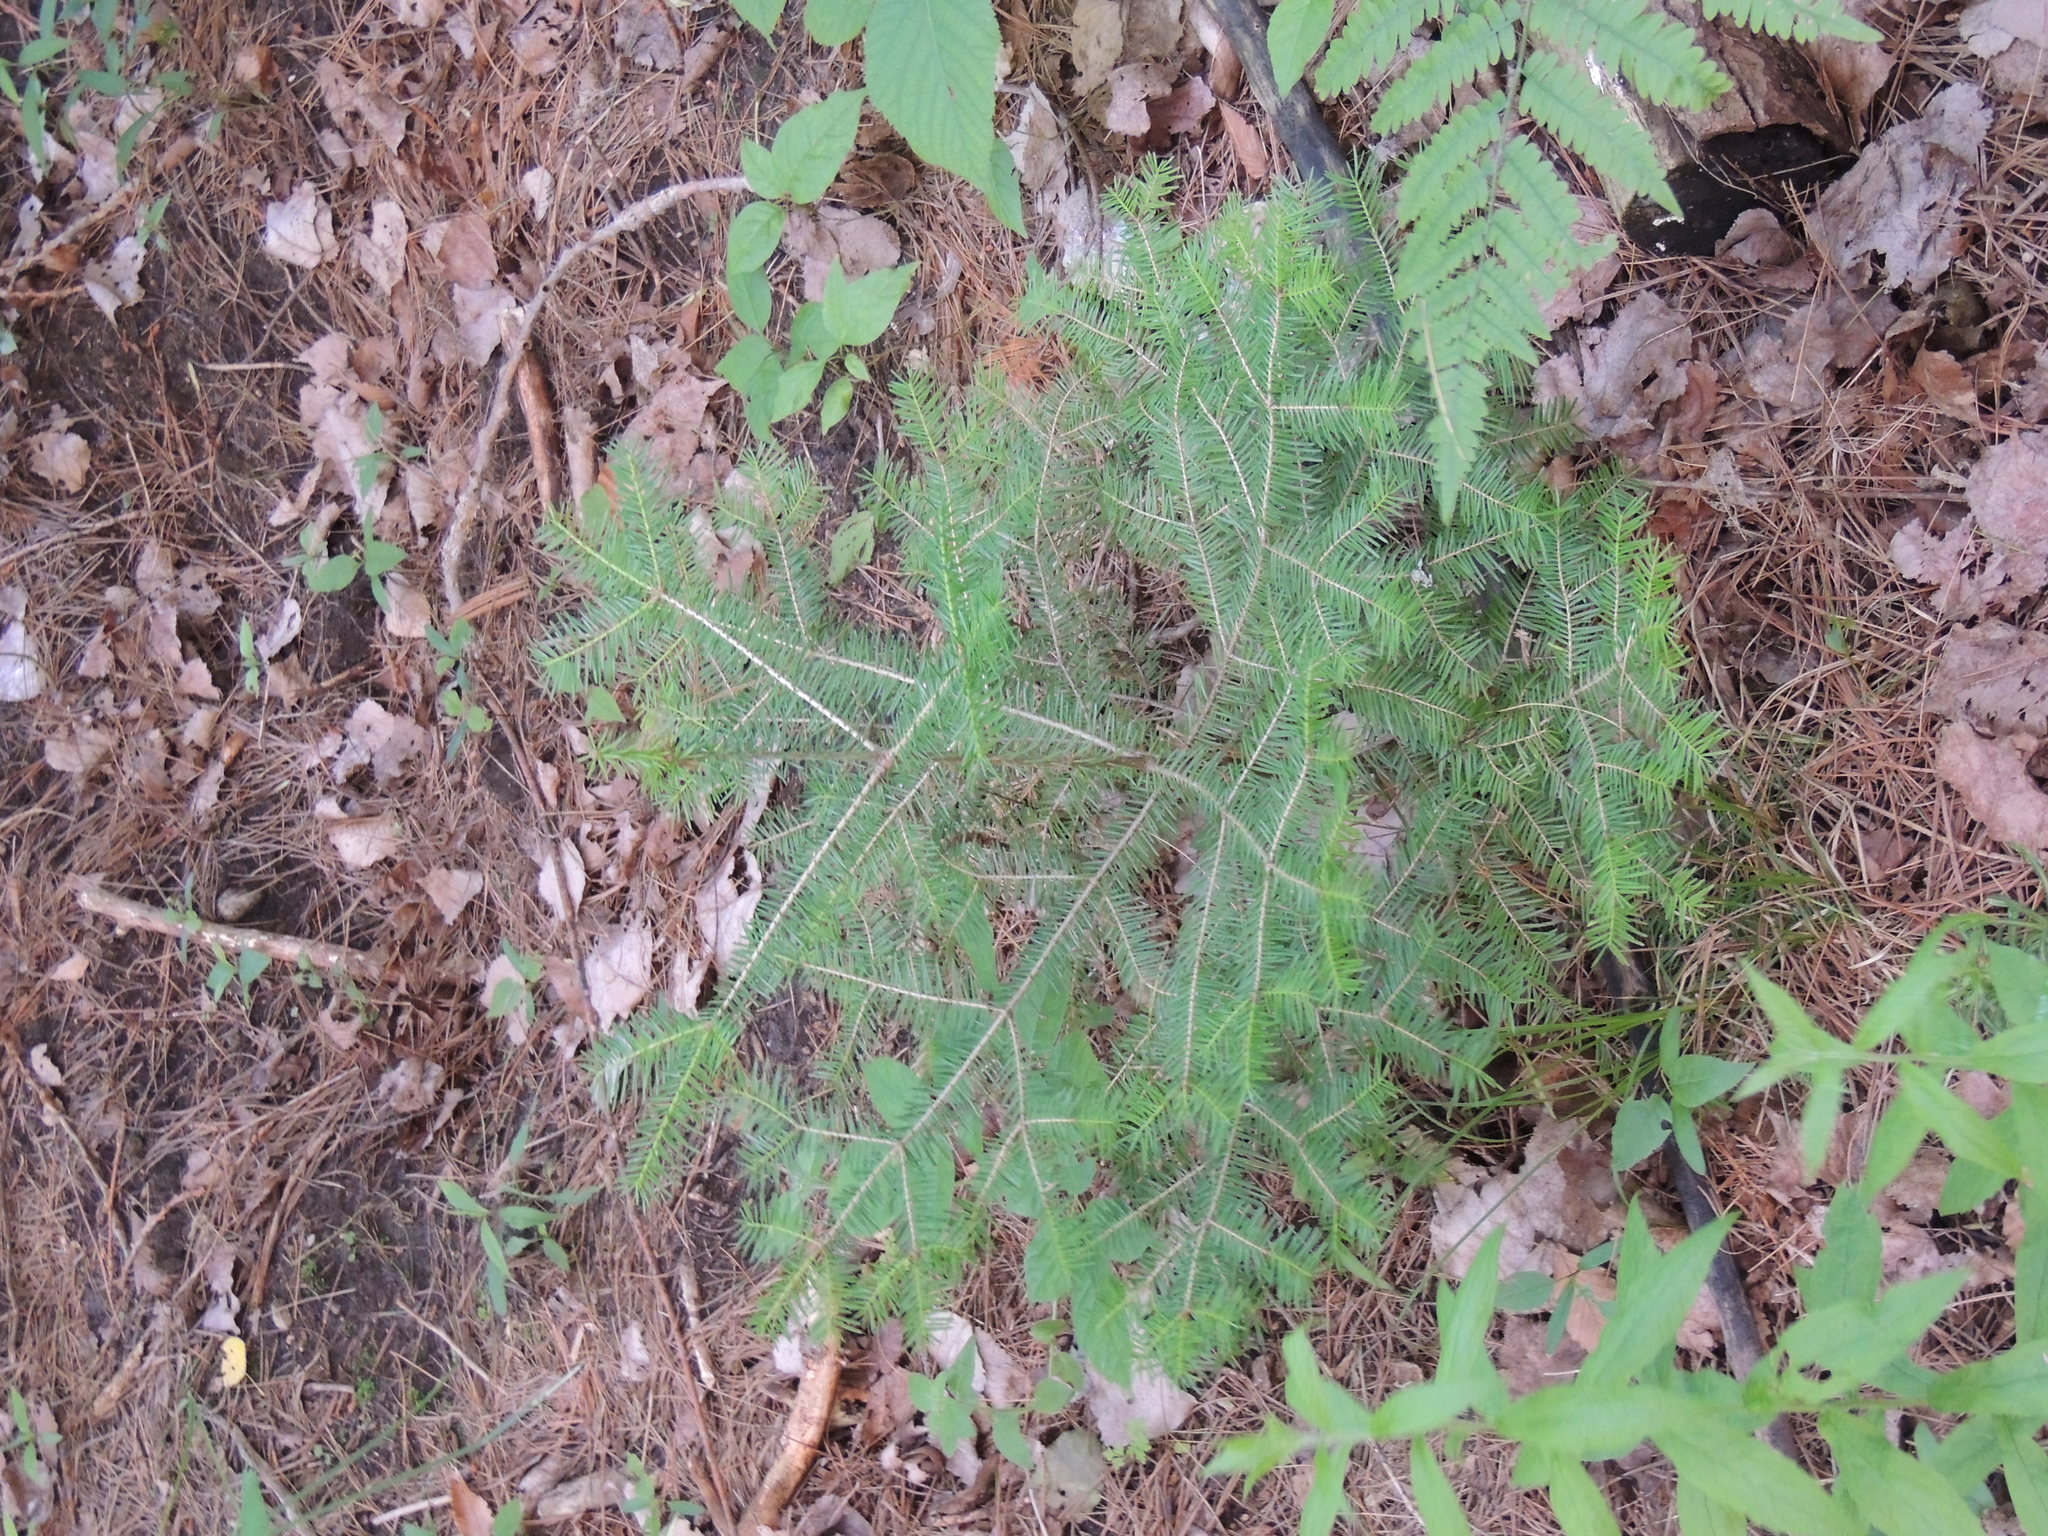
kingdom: Plantae
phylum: Tracheophyta
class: Pinopsida
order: Pinales
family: Pinaceae
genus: Abies
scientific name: Abies balsamea
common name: Balsam fir
